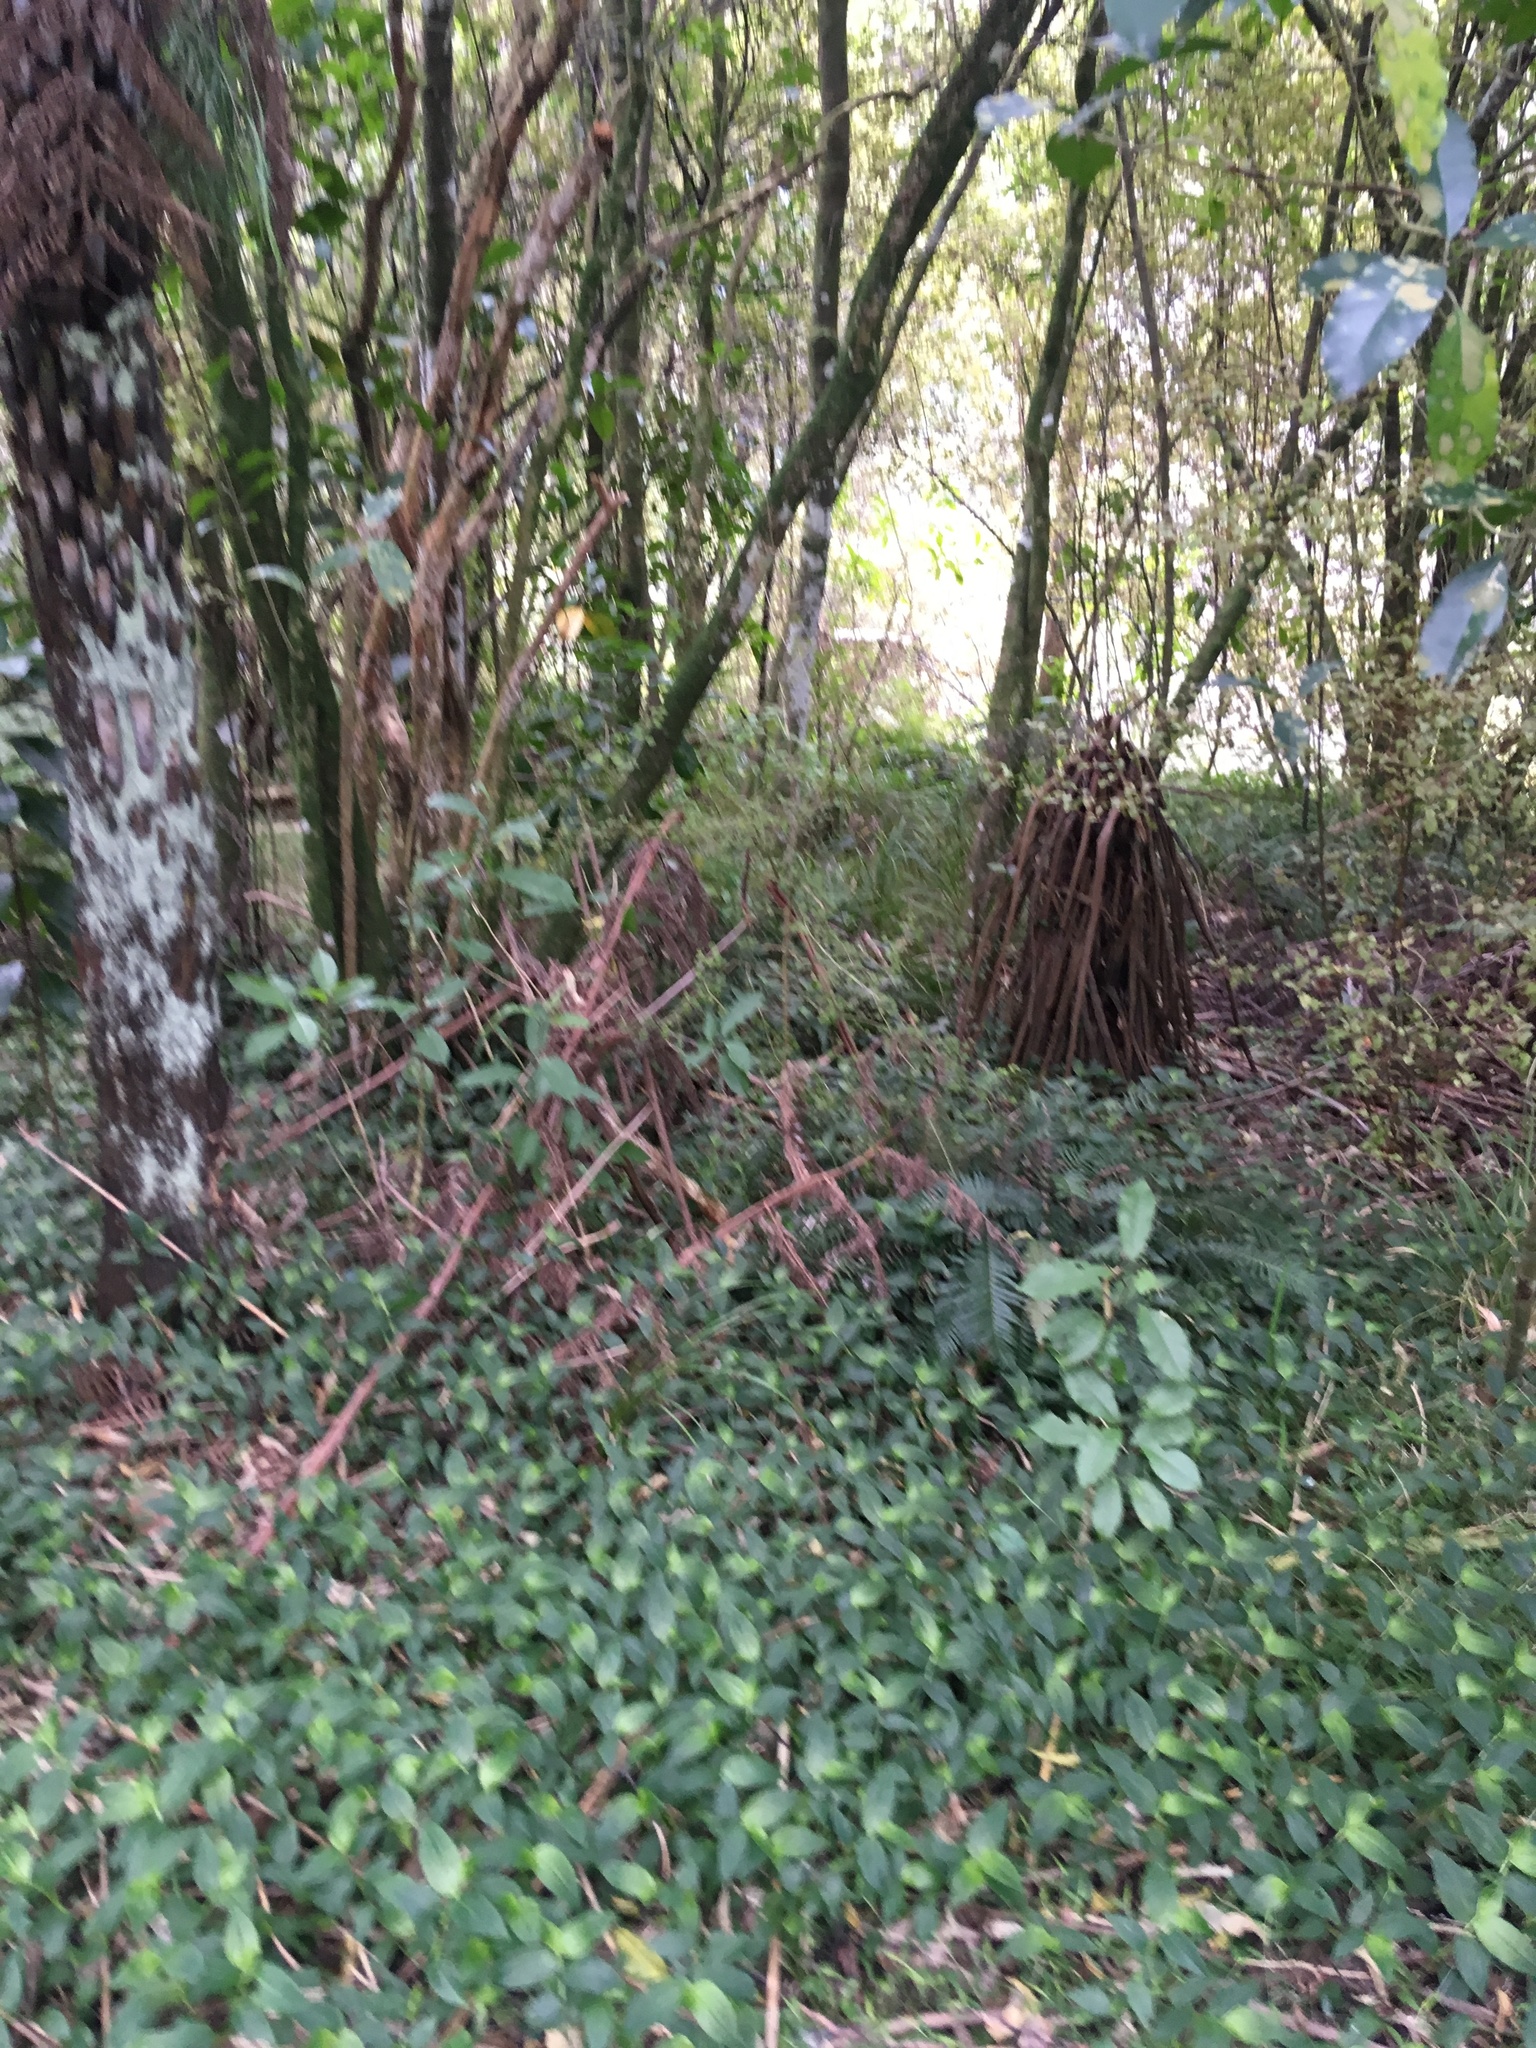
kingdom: Plantae
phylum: Tracheophyta
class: Liliopsida
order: Commelinales
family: Commelinaceae
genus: Tradescantia
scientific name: Tradescantia fluminensis
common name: Wandering-jew
